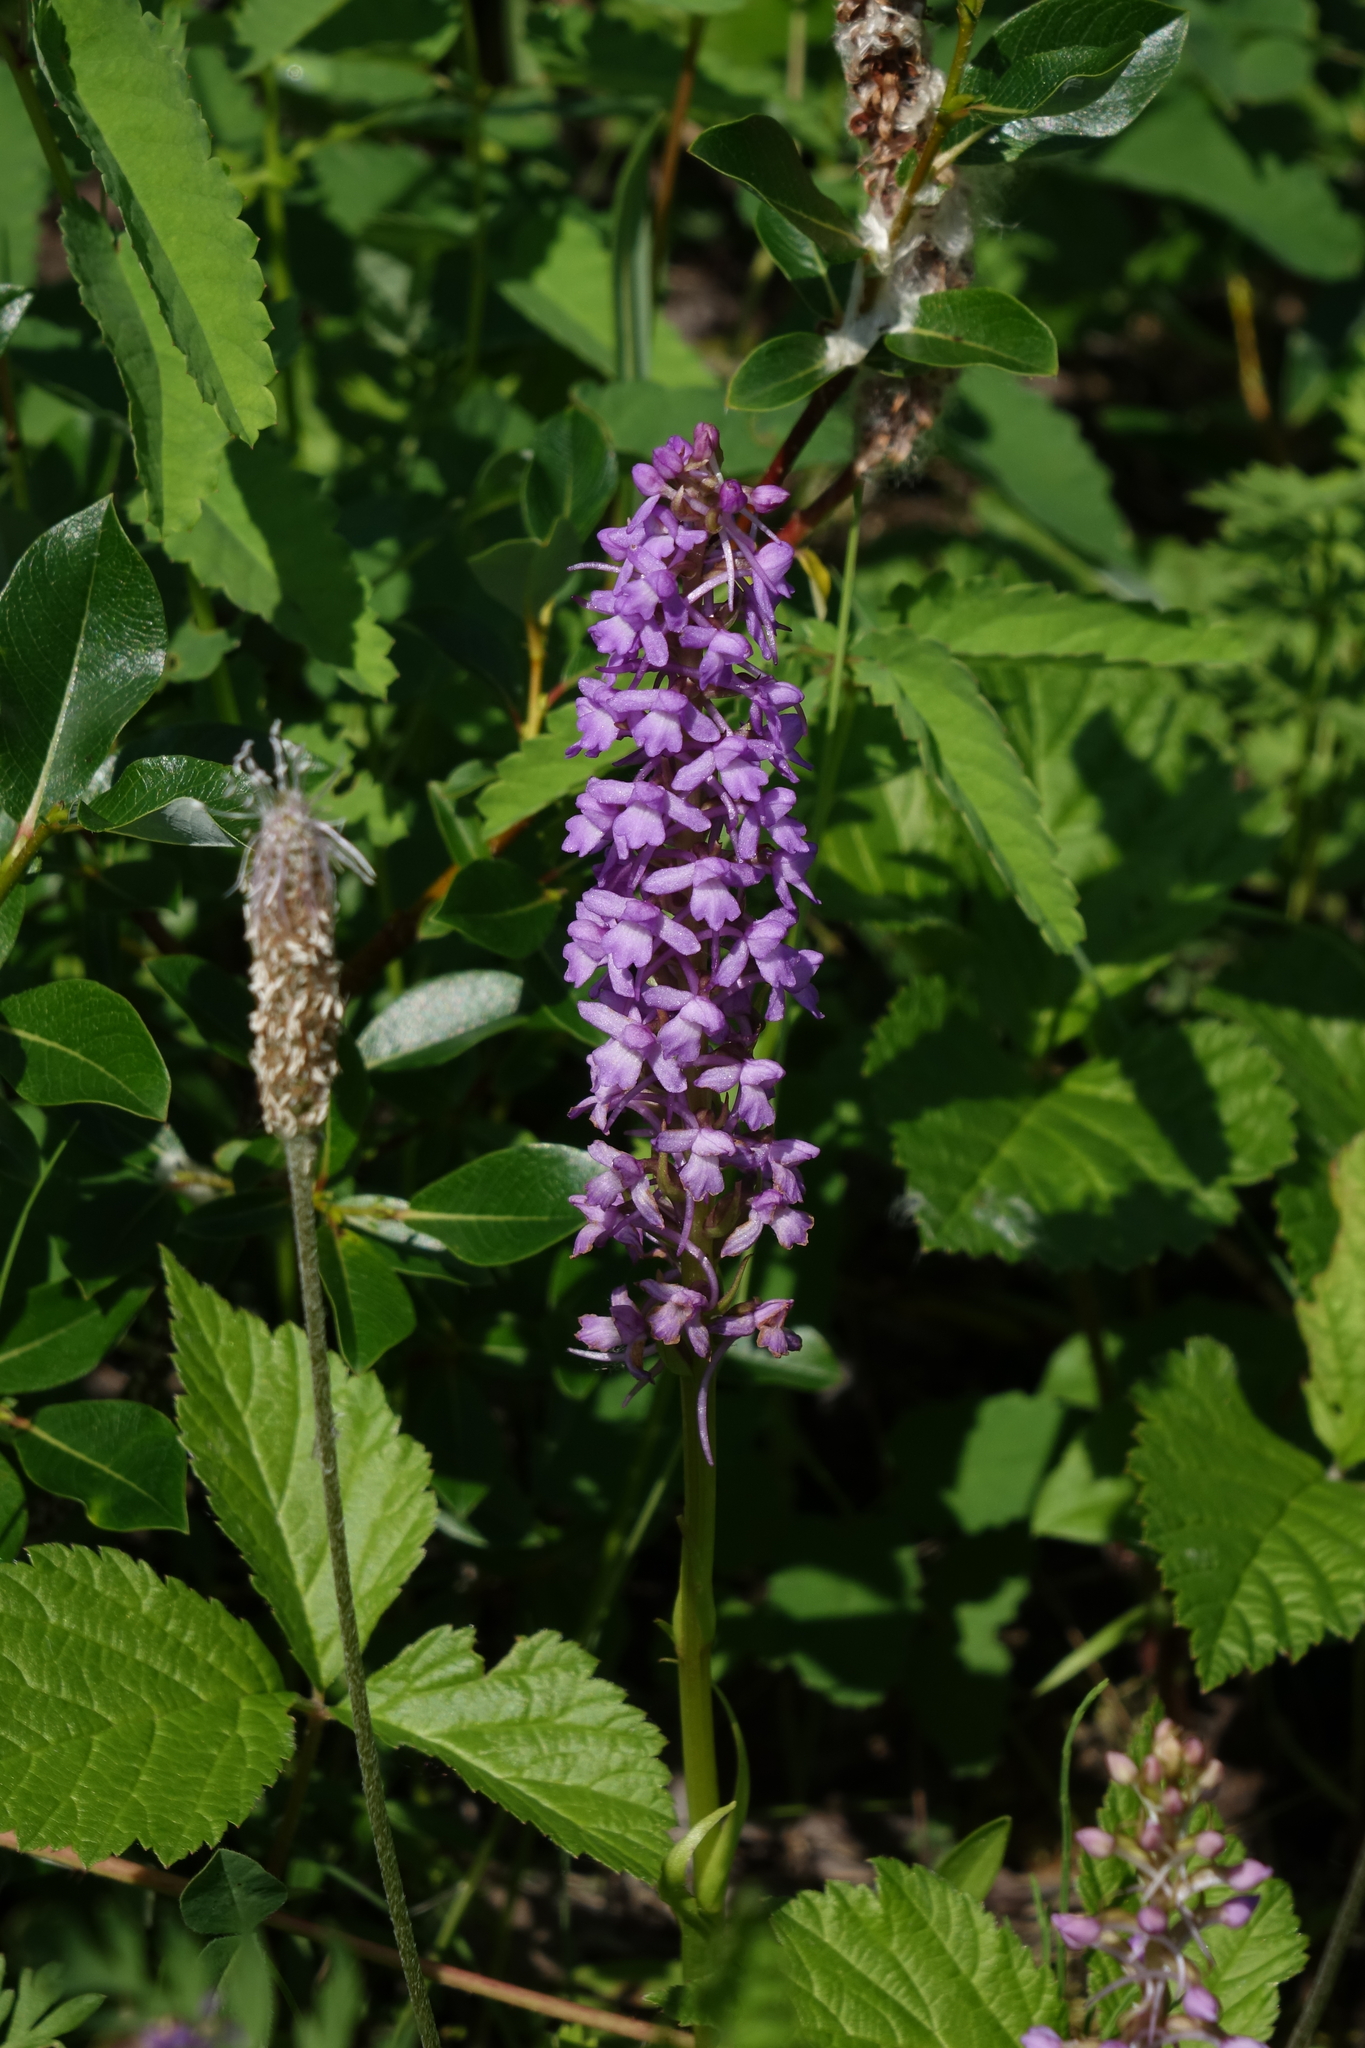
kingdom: Plantae
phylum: Tracheophyta
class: Liliopsida
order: Asparagales
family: Orchidaceae
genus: Gymnadenia
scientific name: Gymnadenia conopsea
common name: Fragrant orchid
